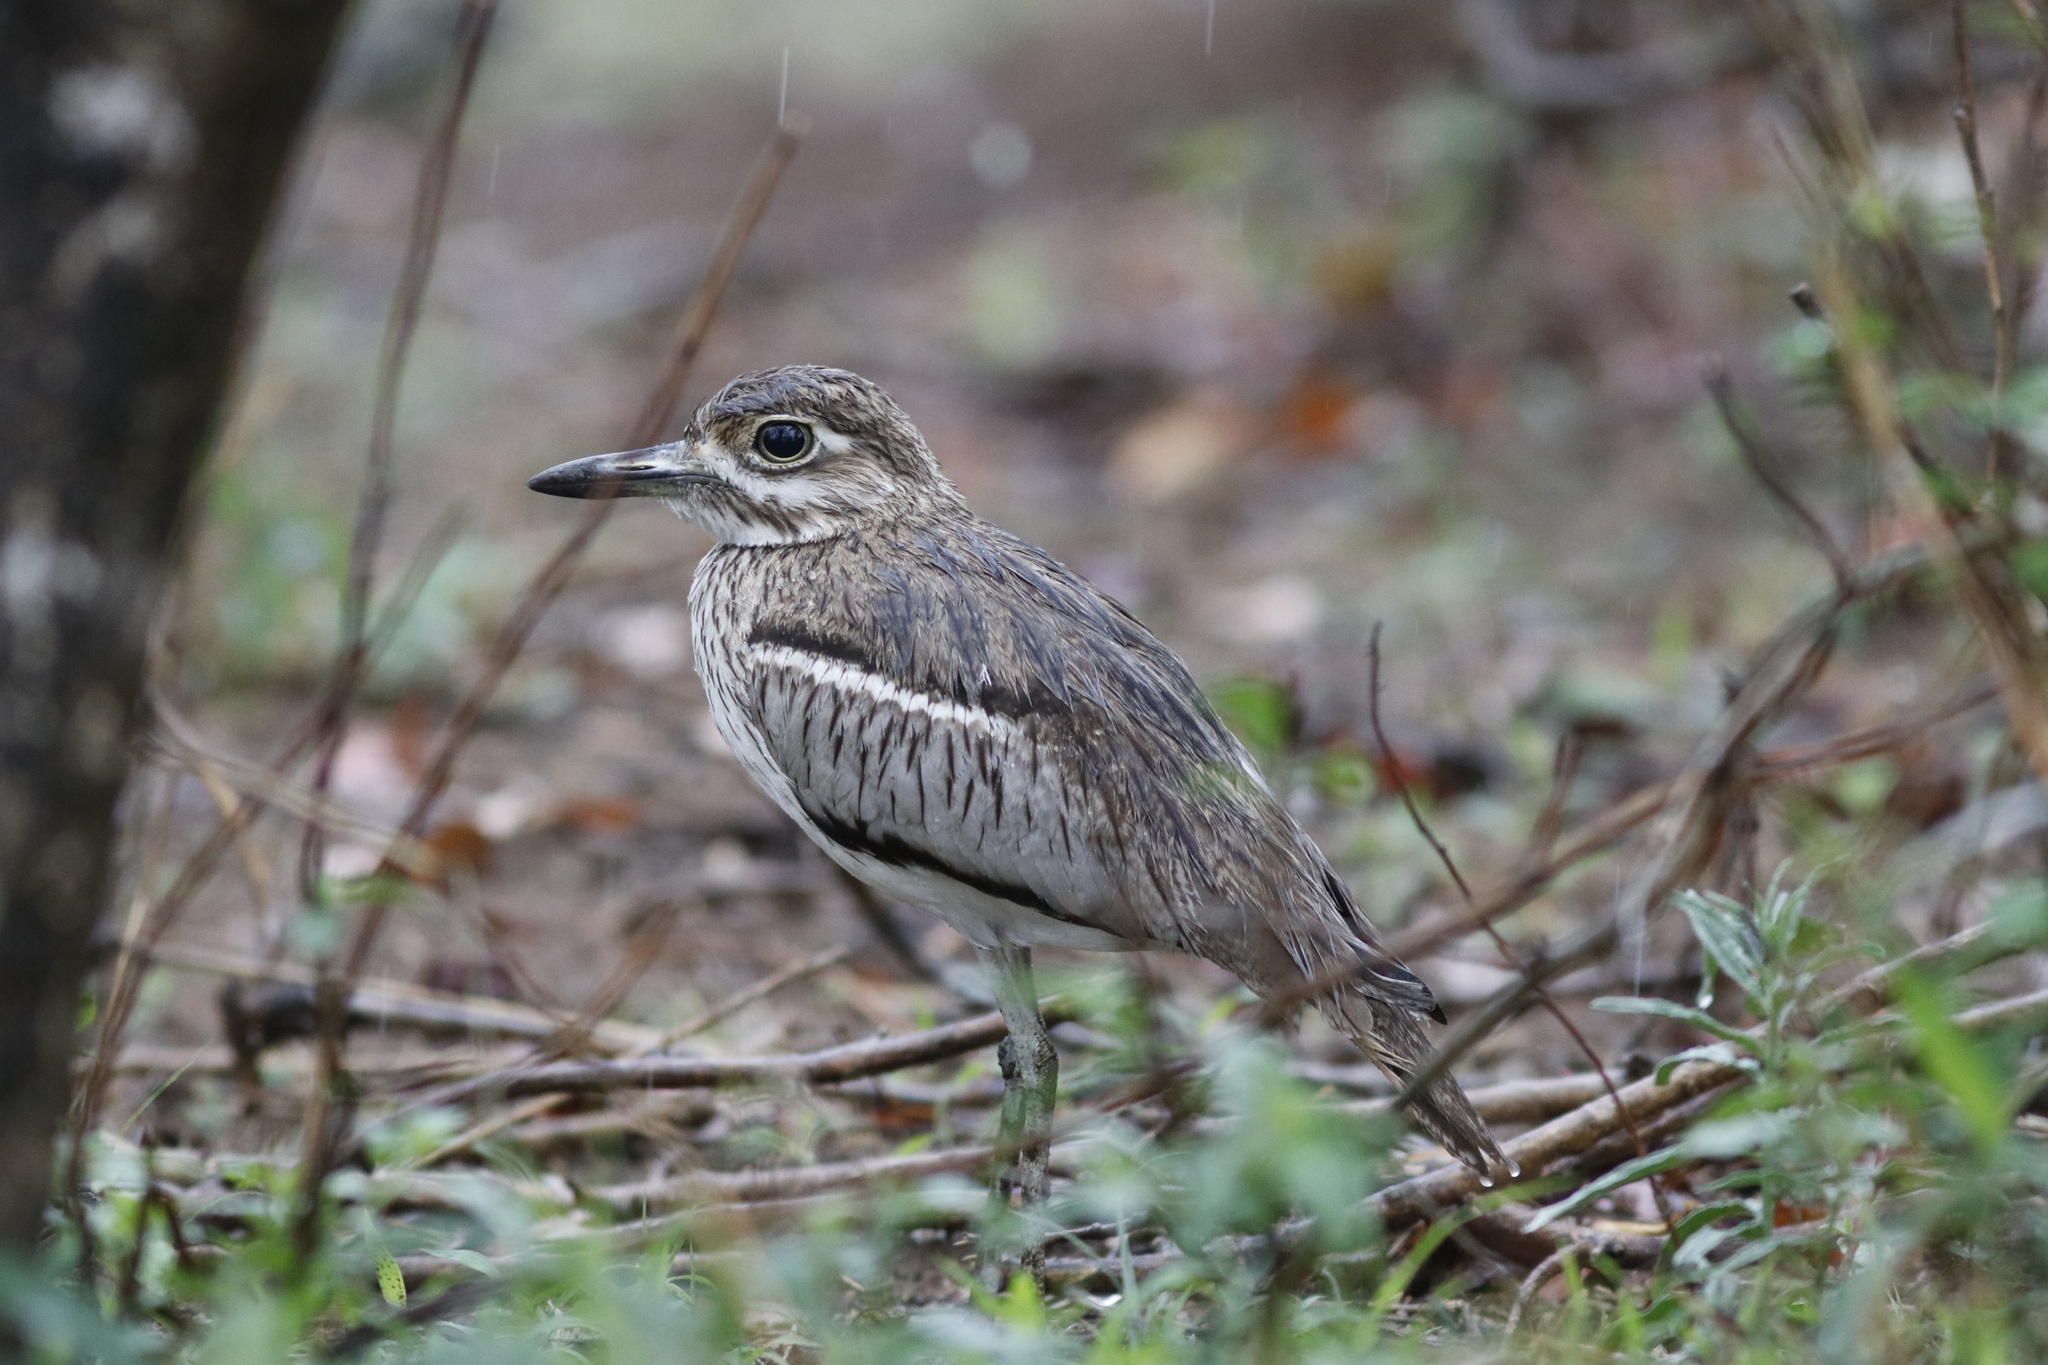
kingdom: Animalia
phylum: Chordata
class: Aves
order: Charadriiformes
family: Burhinidae
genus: Burhinus
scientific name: Burhinus vermiculatus
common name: Water thick-knee
